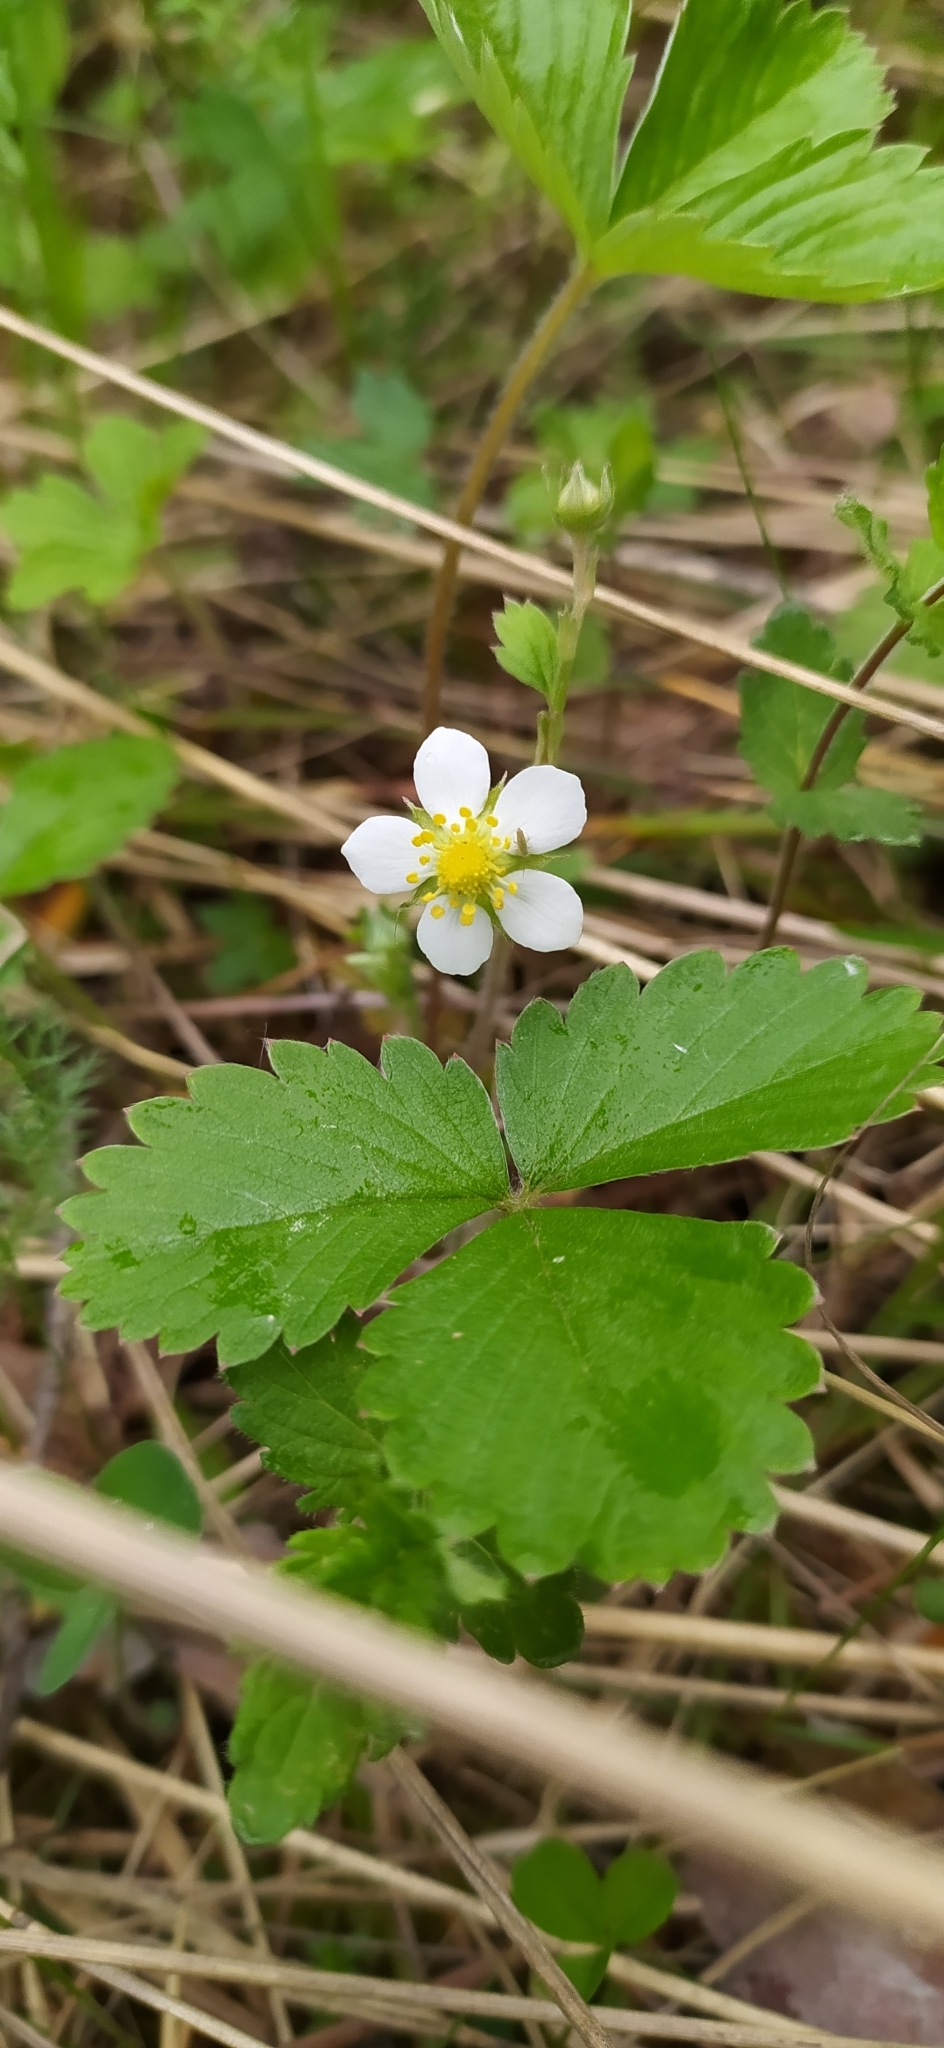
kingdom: Plantae
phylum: Tracheophyta
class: Magnoliopsida
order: Rosales
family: Rosaceae
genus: Fragaria
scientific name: Fragaria vesca
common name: Wild strawberry
